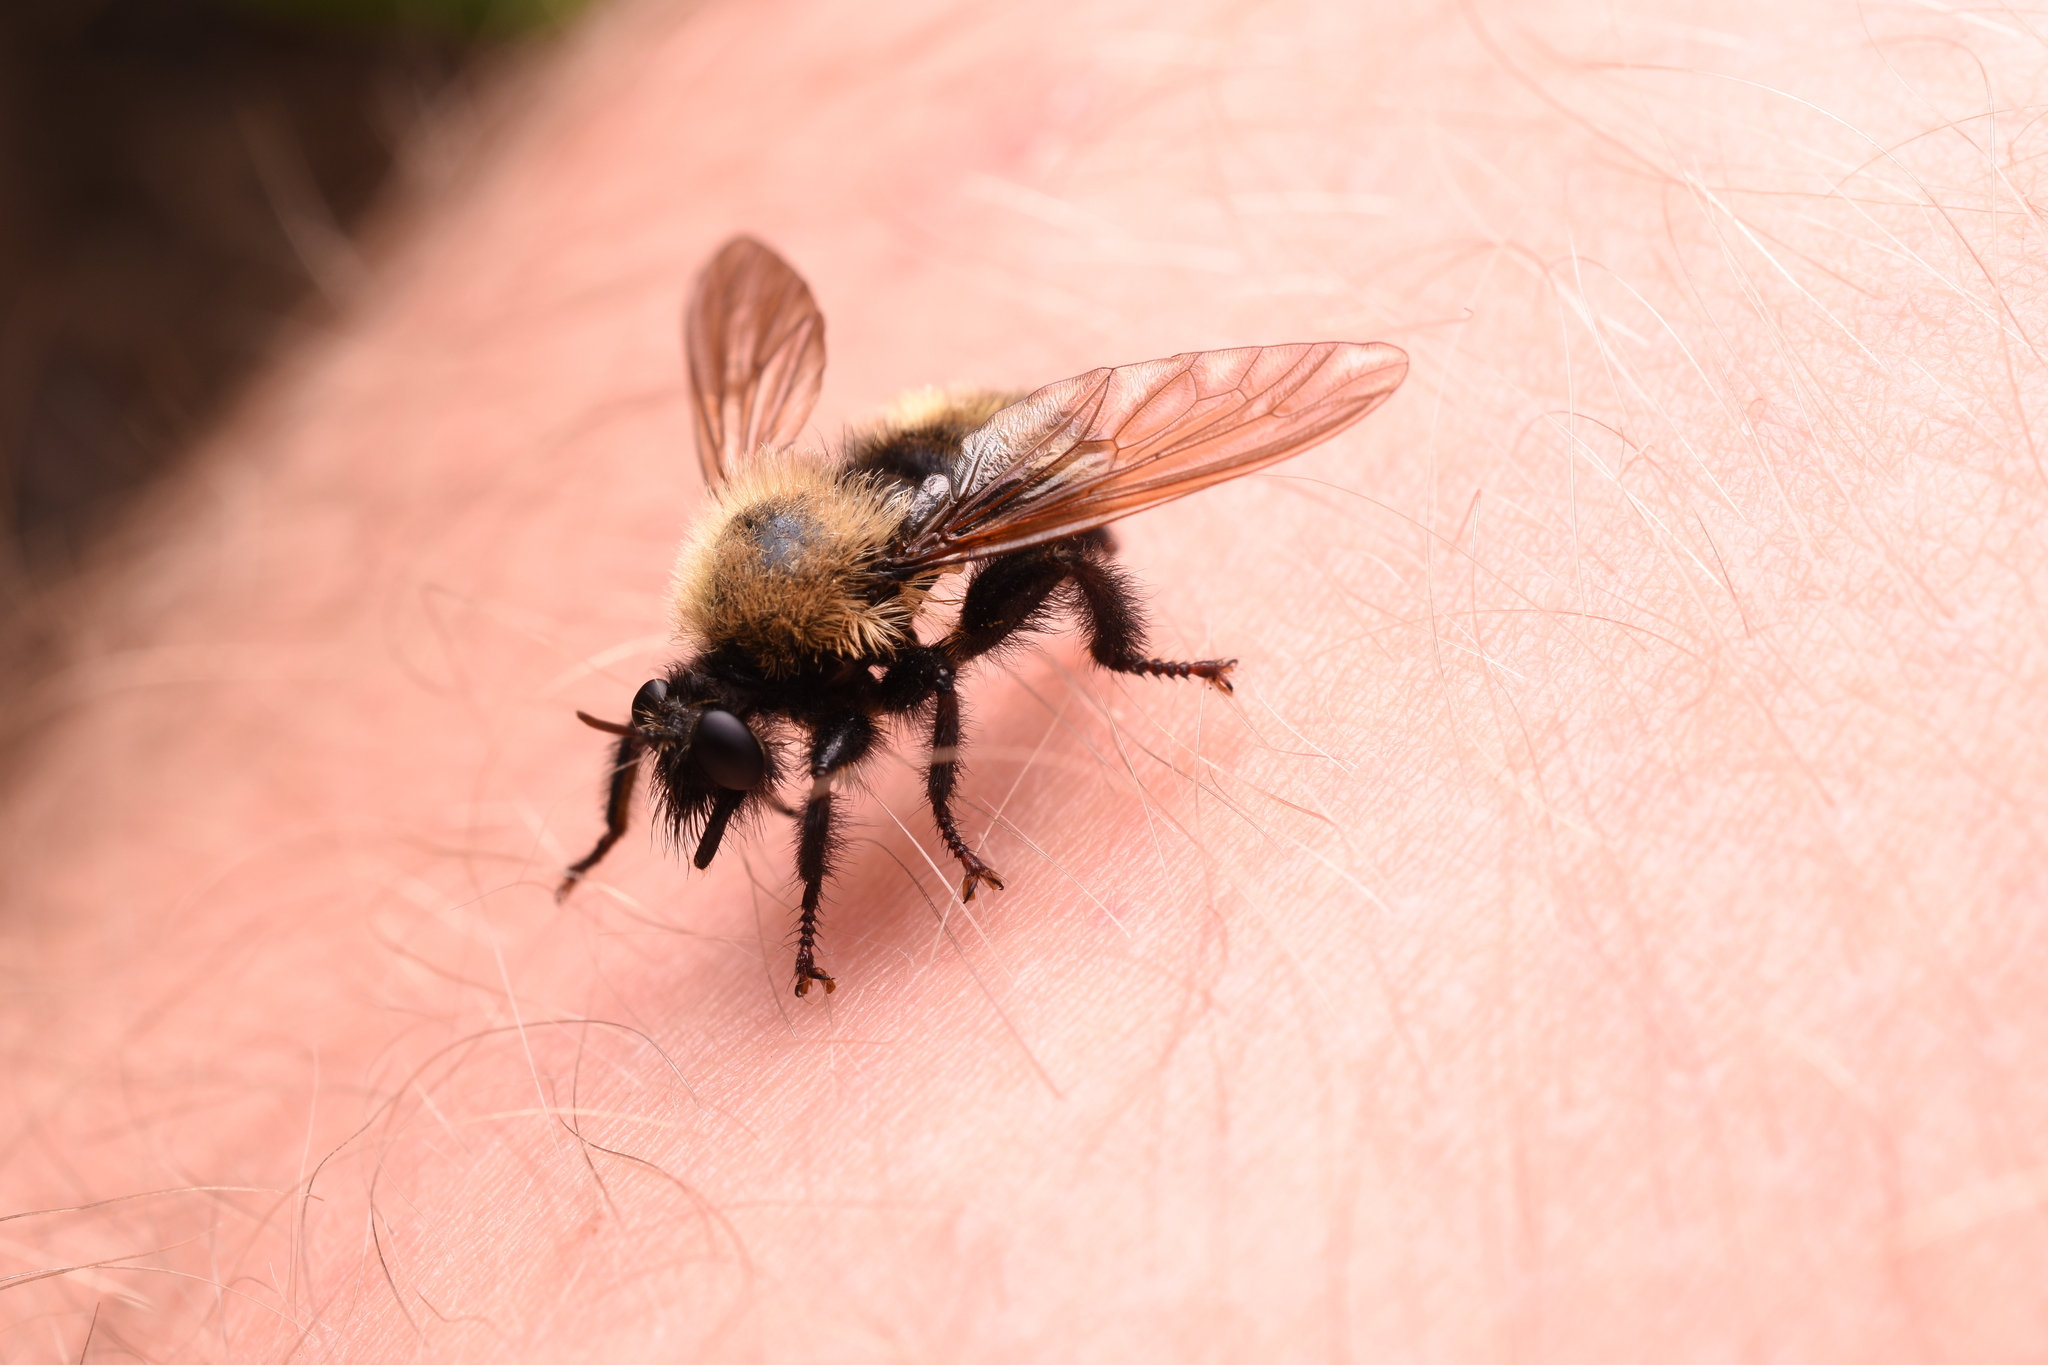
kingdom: Animalia
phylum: Arthropoda
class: Insecta
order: Diptera
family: Asilidae
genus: Laphria
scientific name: Laphria thoracica
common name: Bumble bee mimic robber fly
